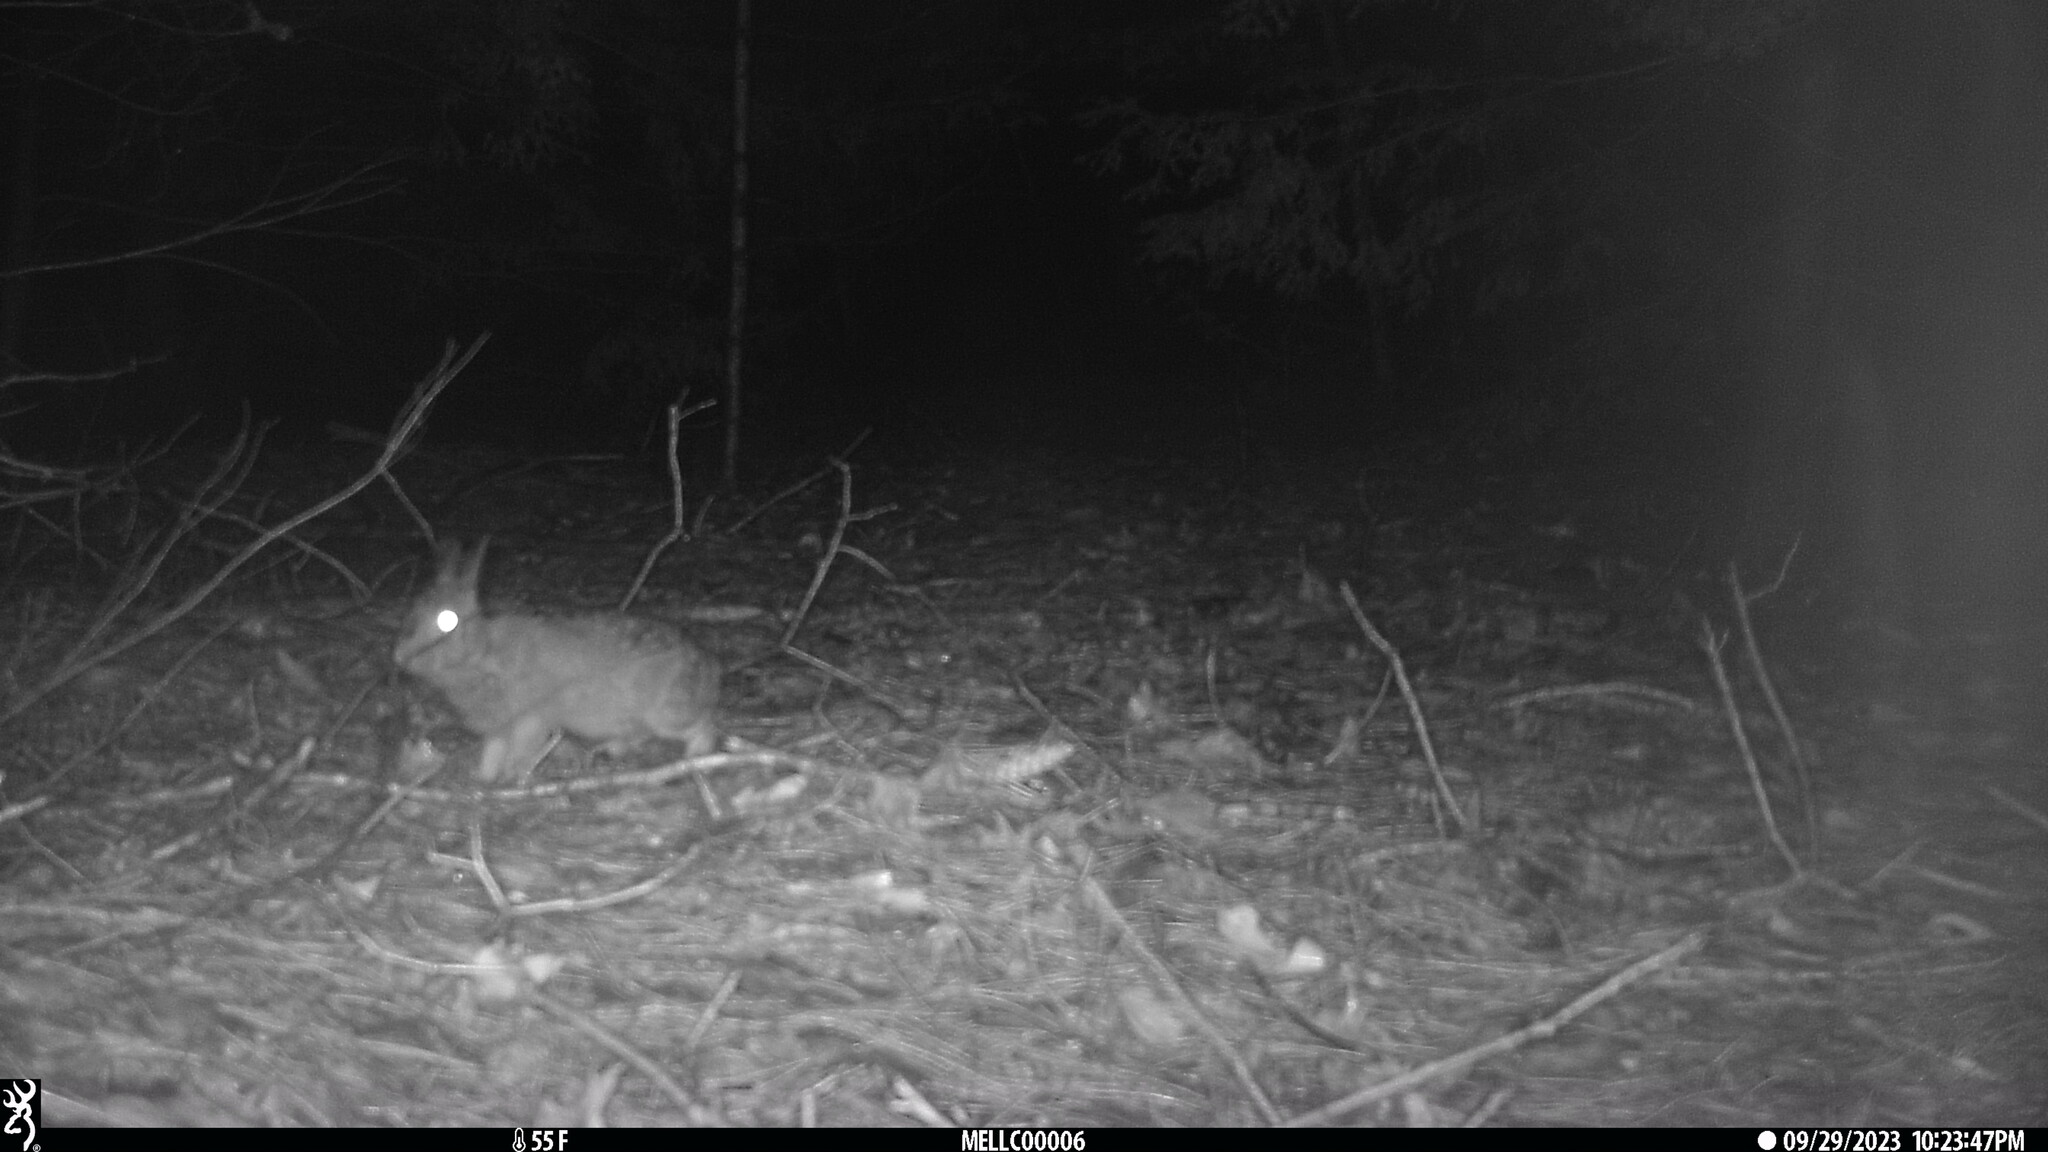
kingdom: Animalia
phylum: Chordata
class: Mammalia
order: Lagomorpha
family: Leporidae
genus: Sylvilagus
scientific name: Sylvilagus floridanus
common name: Eastern cottontail
